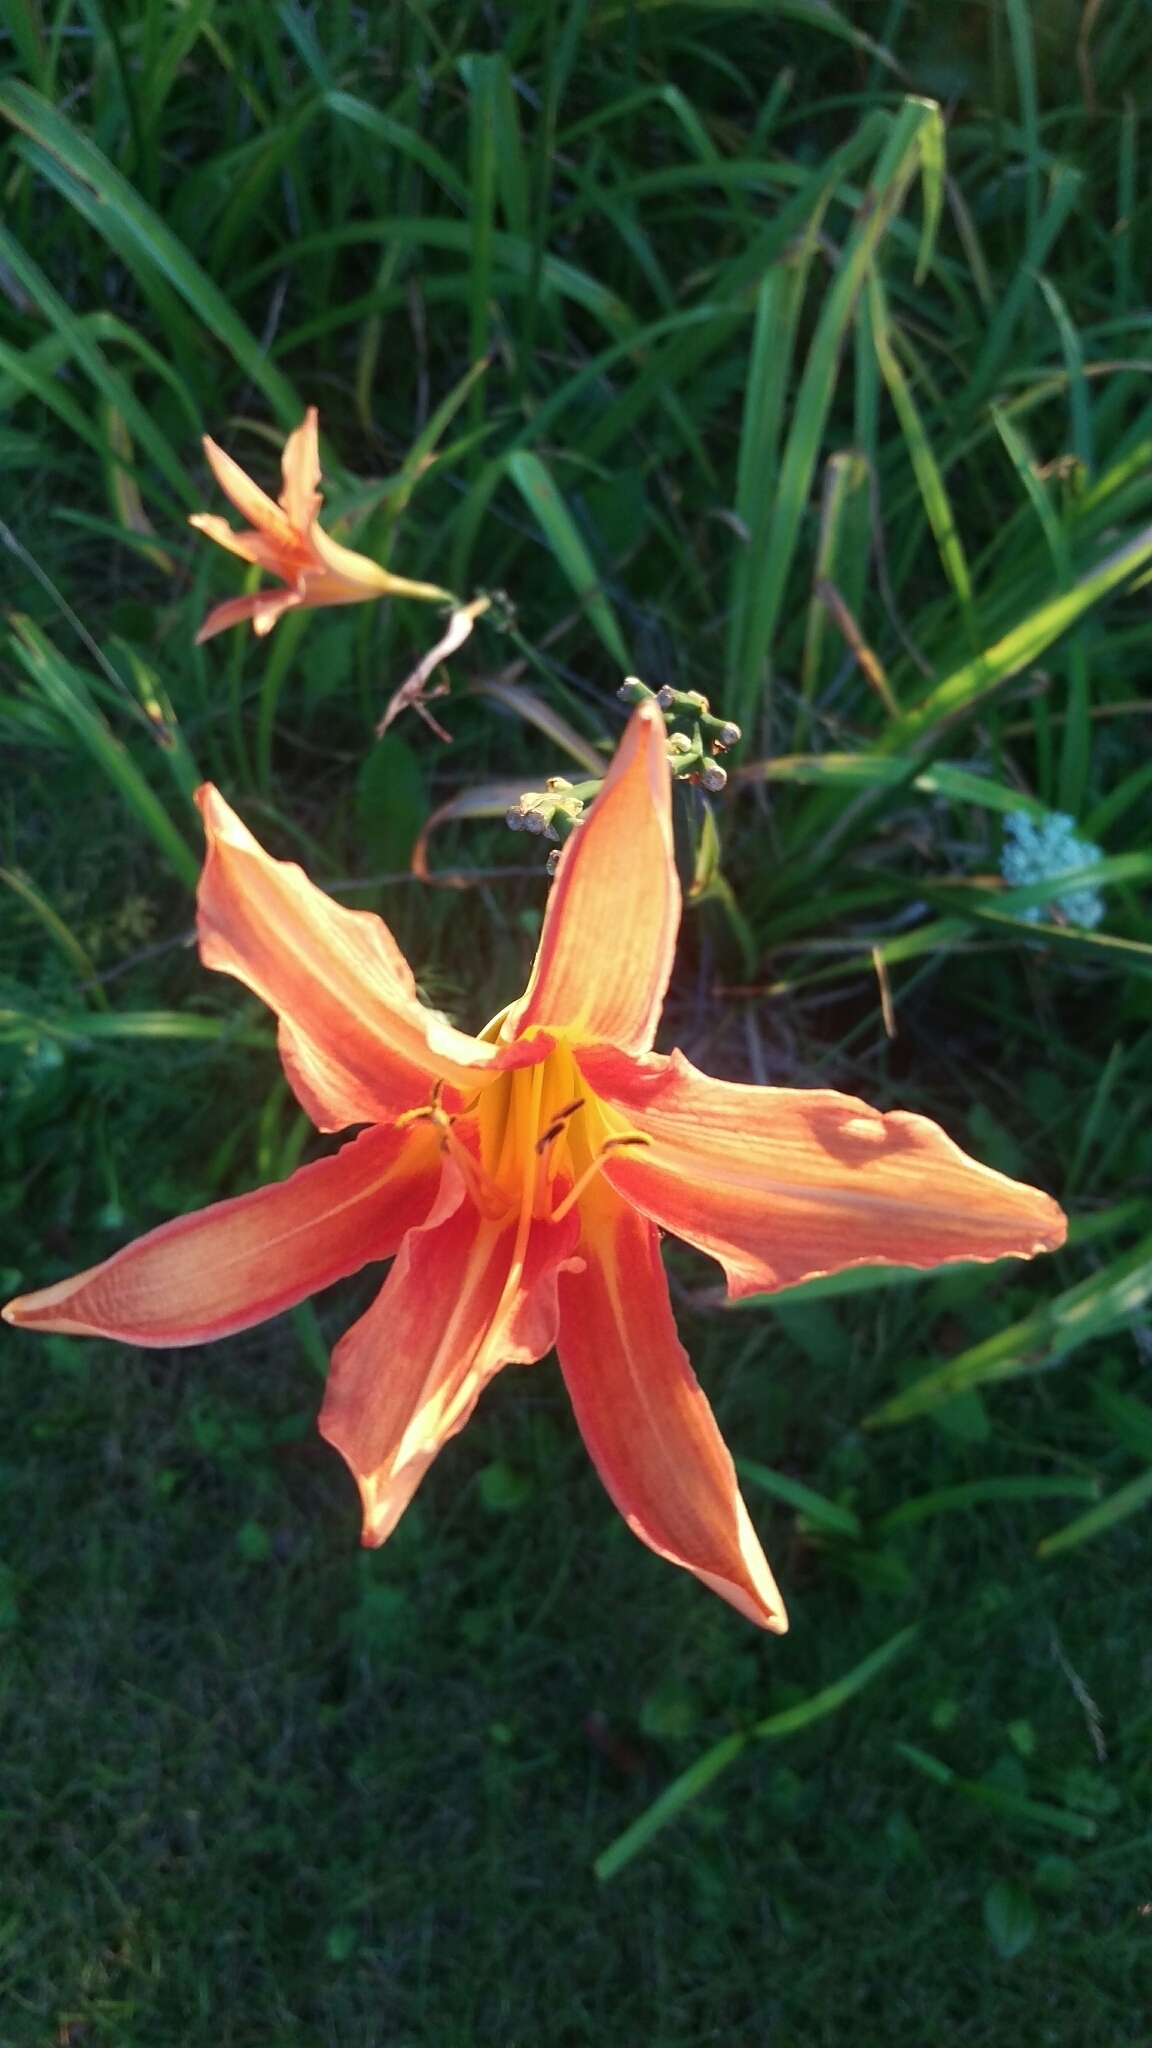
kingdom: Plantae
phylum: Tracheophyta
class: Liliopsida
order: Asparagales
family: Asphodelaceae
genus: Hemerocallis
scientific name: Hemerocallis fulva
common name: Orange day-lily
